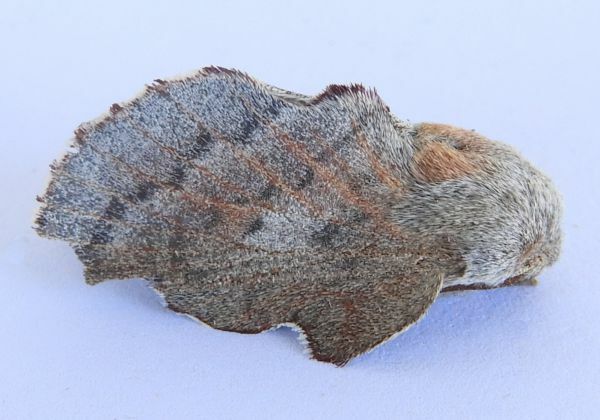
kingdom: Animalia
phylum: Arthropoda
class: Insecta
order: Lepidoptera
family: Lasiocampidae
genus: Phyllodesma
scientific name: Phyllodesma americana
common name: American lappet moth
